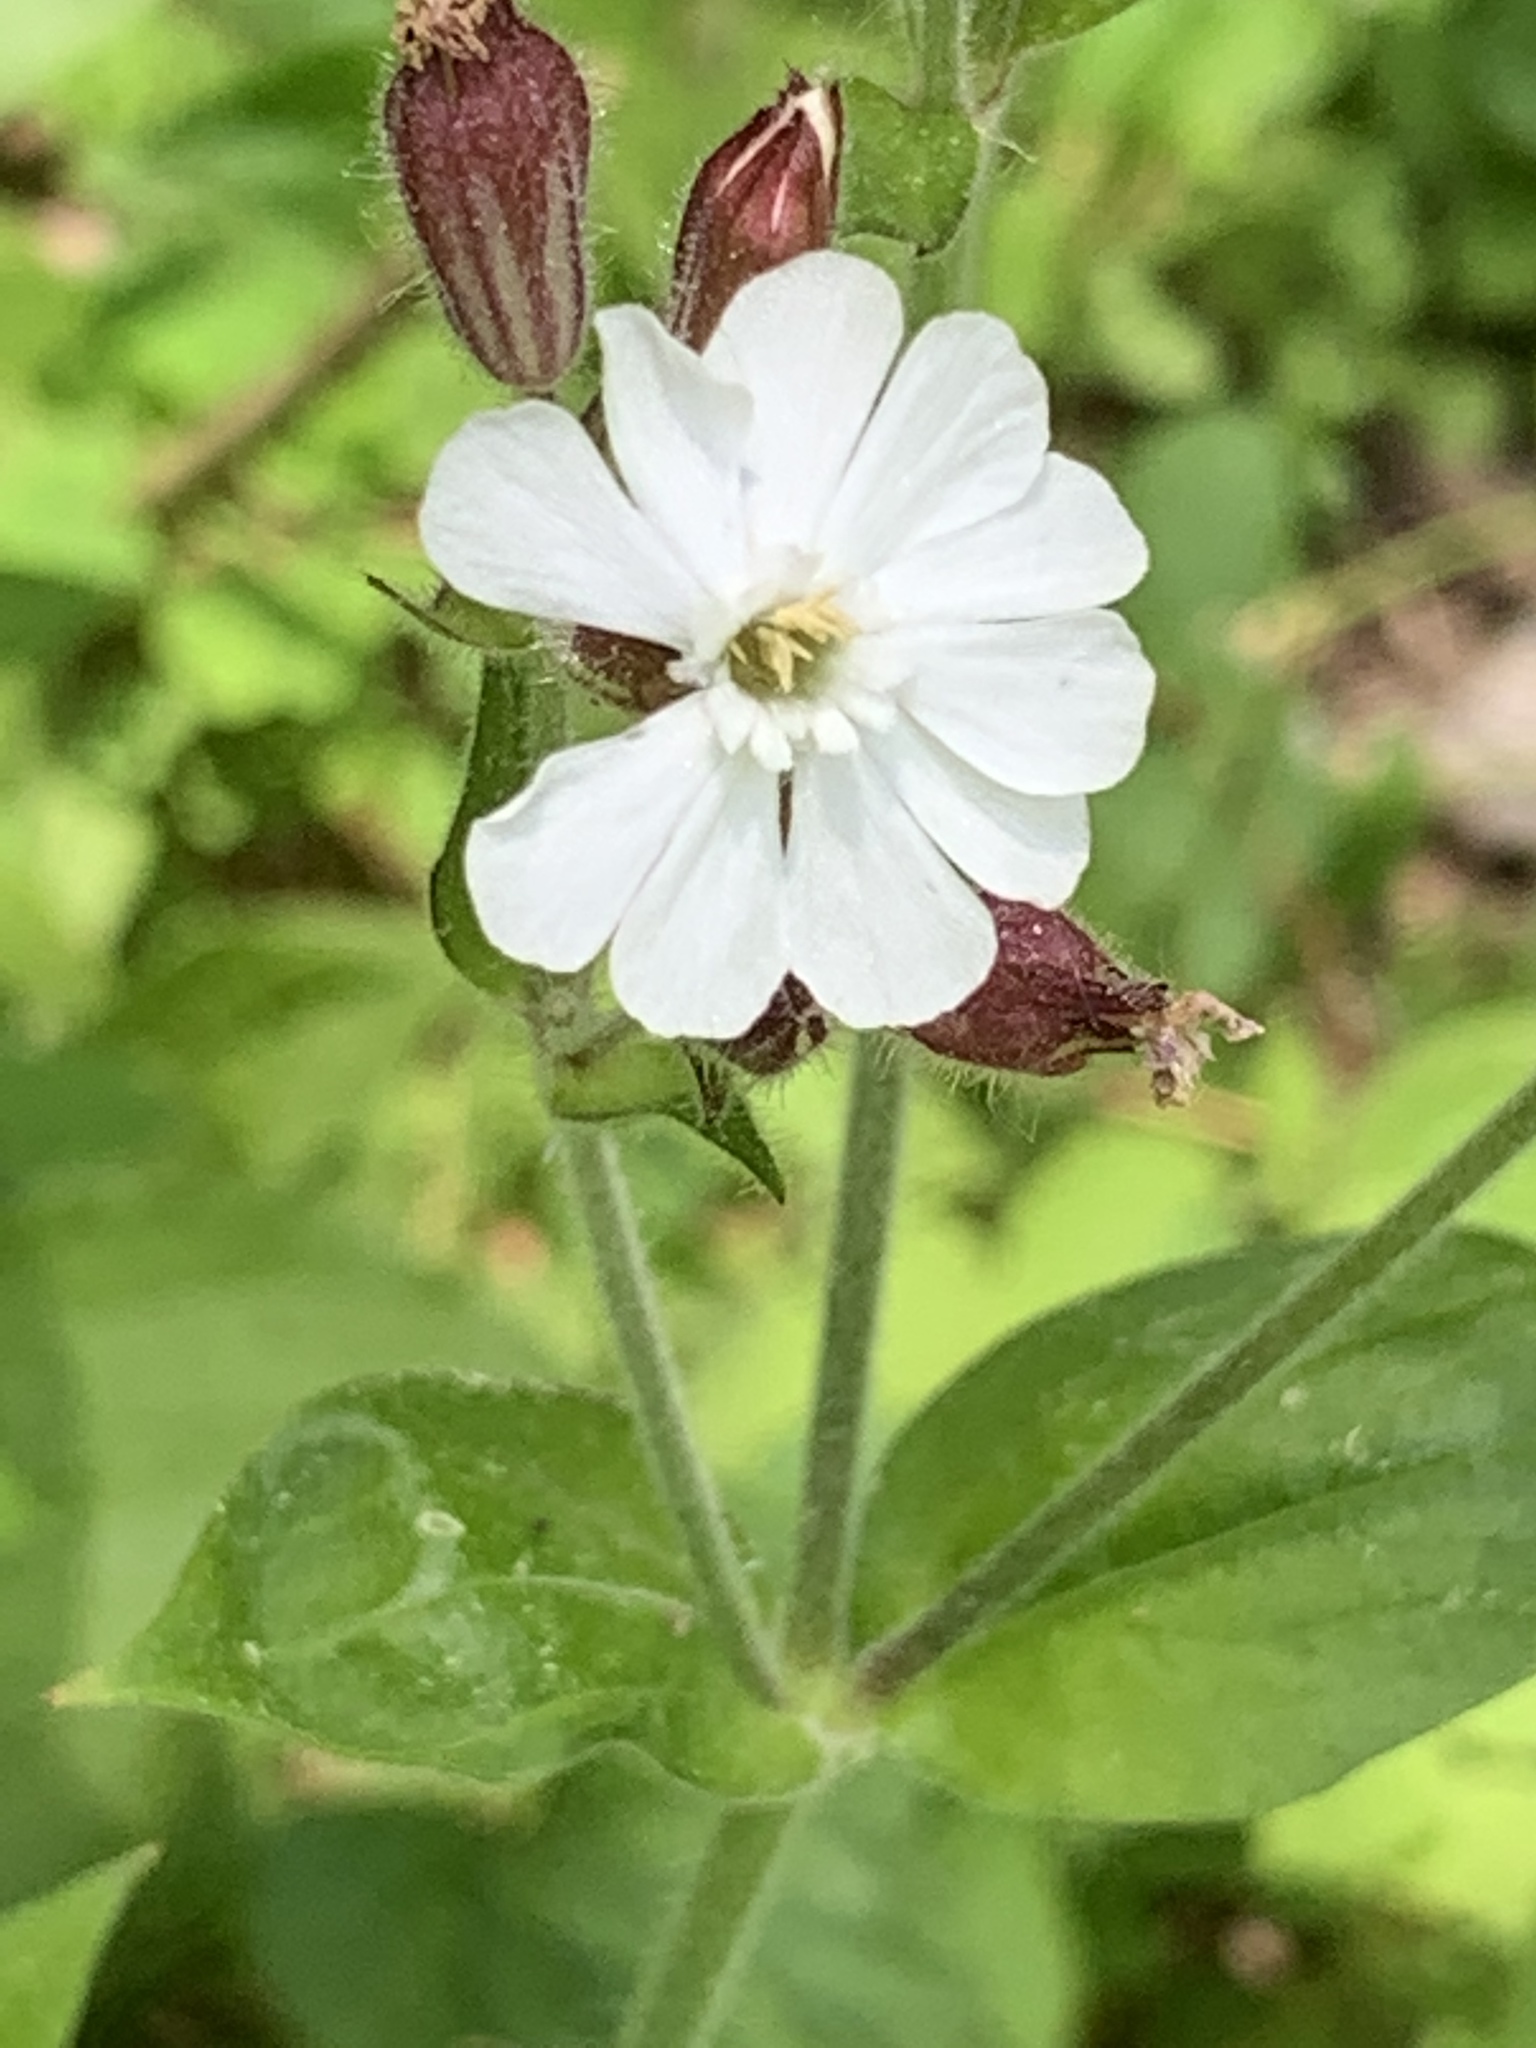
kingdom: Plantae
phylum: Tracheophyta
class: Magnoliopsida
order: Caryophyllales
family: Caryophyllaceae
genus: Silene
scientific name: Silene latifolia
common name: White campion
